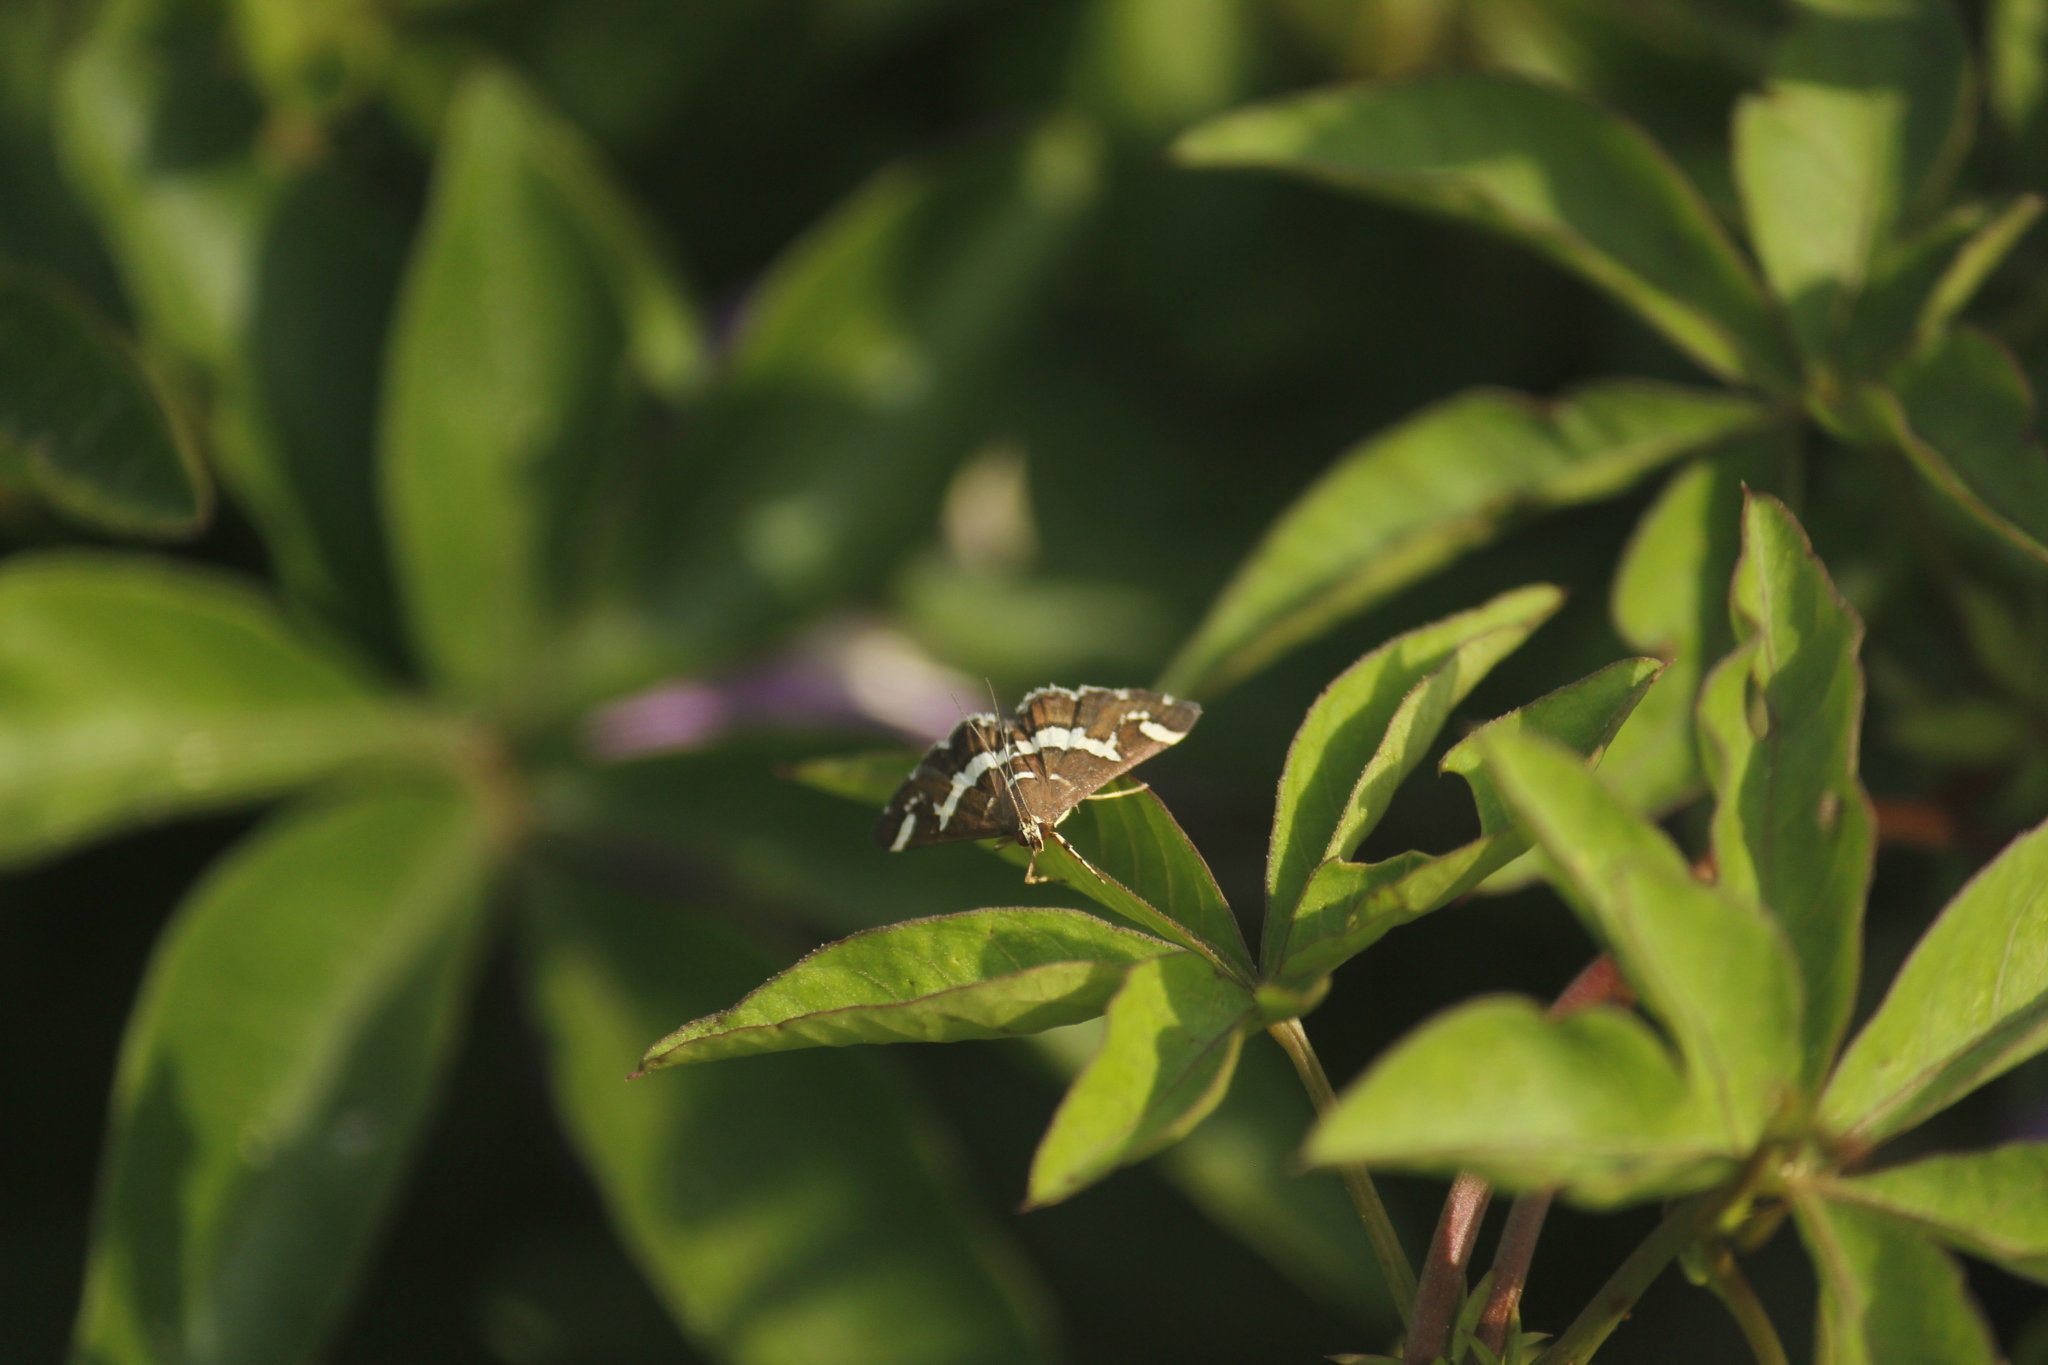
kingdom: Animalia
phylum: Arthropoda
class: Insecta
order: Lepidoptera
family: Crambidae
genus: Spoladea
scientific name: Spoladea recurvalis
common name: Beet webworm moth
